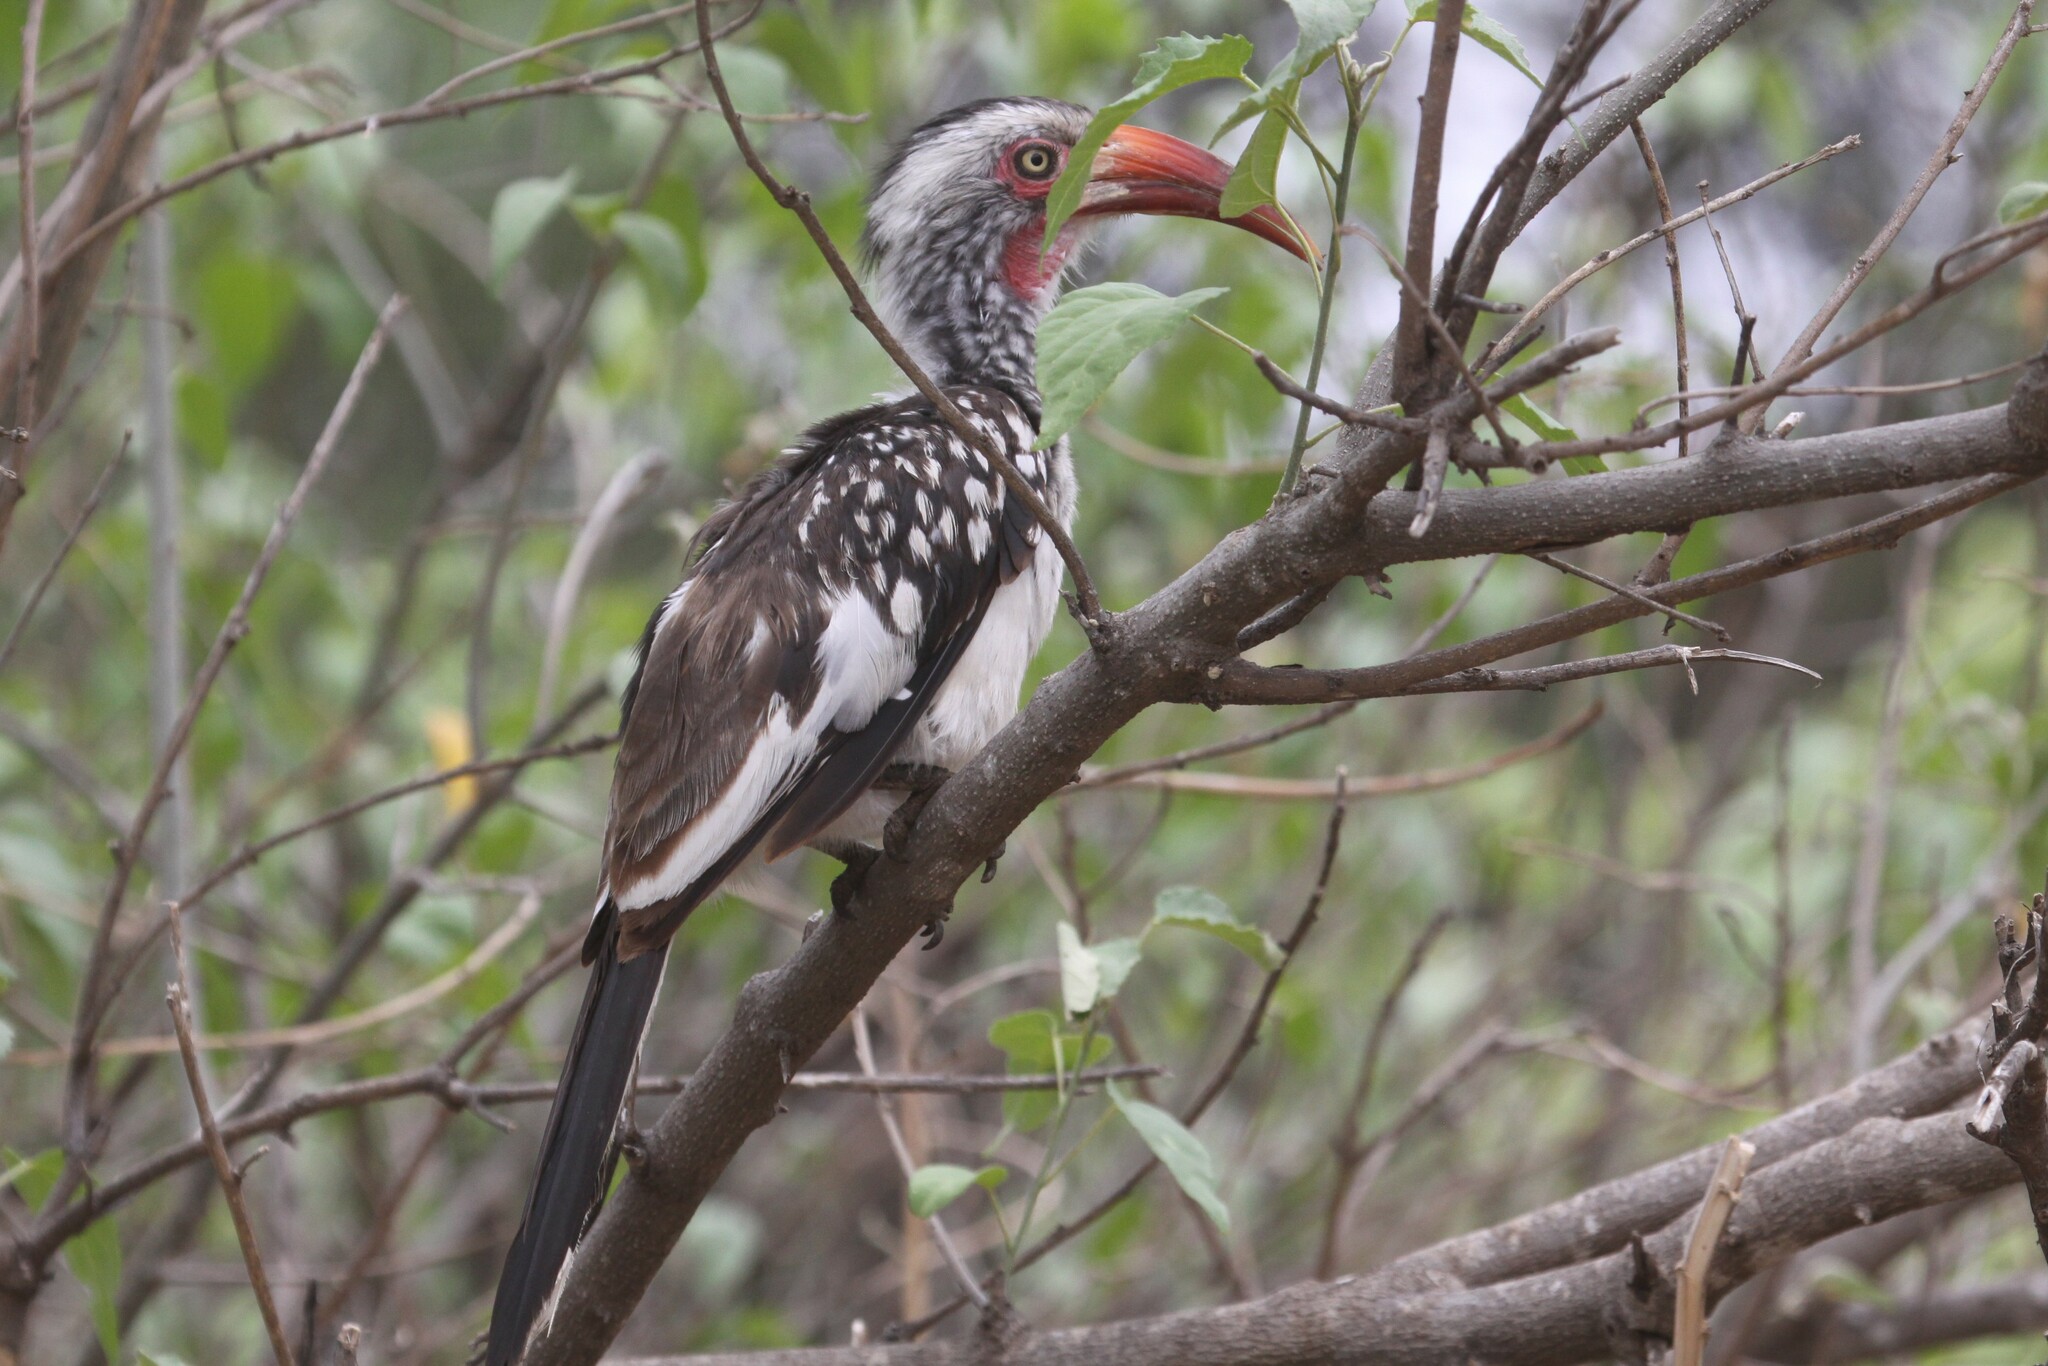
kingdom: Animalia
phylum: Chordata
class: Aves
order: Bucerotiformes
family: Bucerotidae
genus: Tockus
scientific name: Tockus rufirostris
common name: Southern red-billed hornbill
